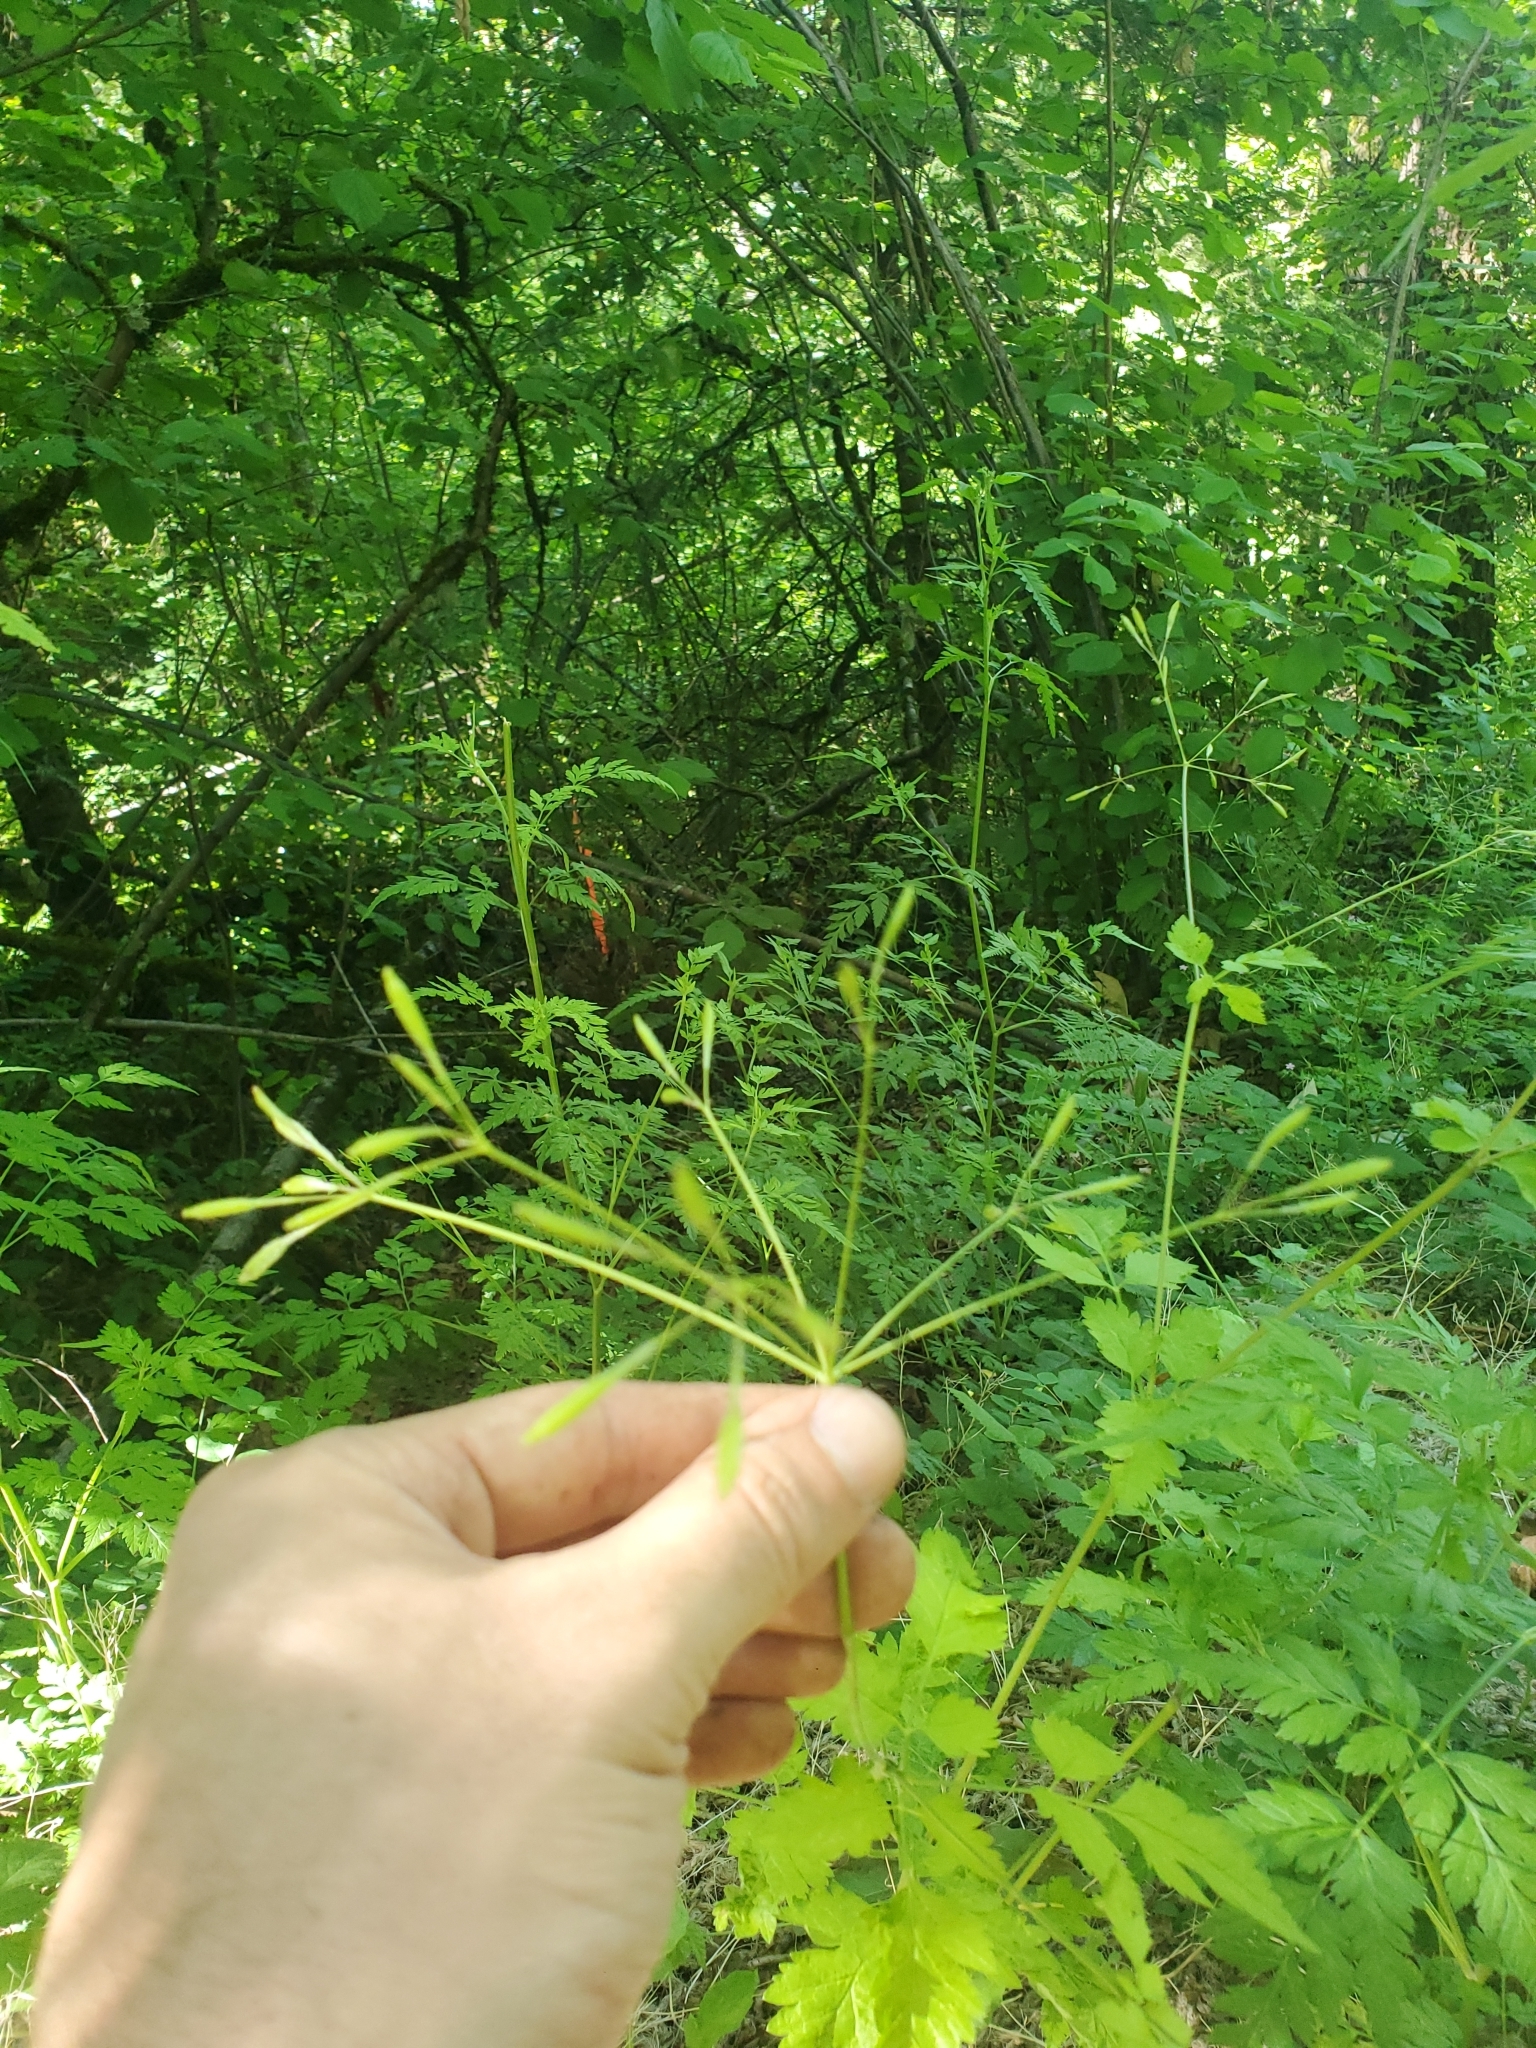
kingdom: Plantae
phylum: Tracheophyta
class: Magnoliopsida
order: Apiales
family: Apiaceae
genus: Osmorhiza
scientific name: Osmorhiza berteroi
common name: Mountain sweet cicely
